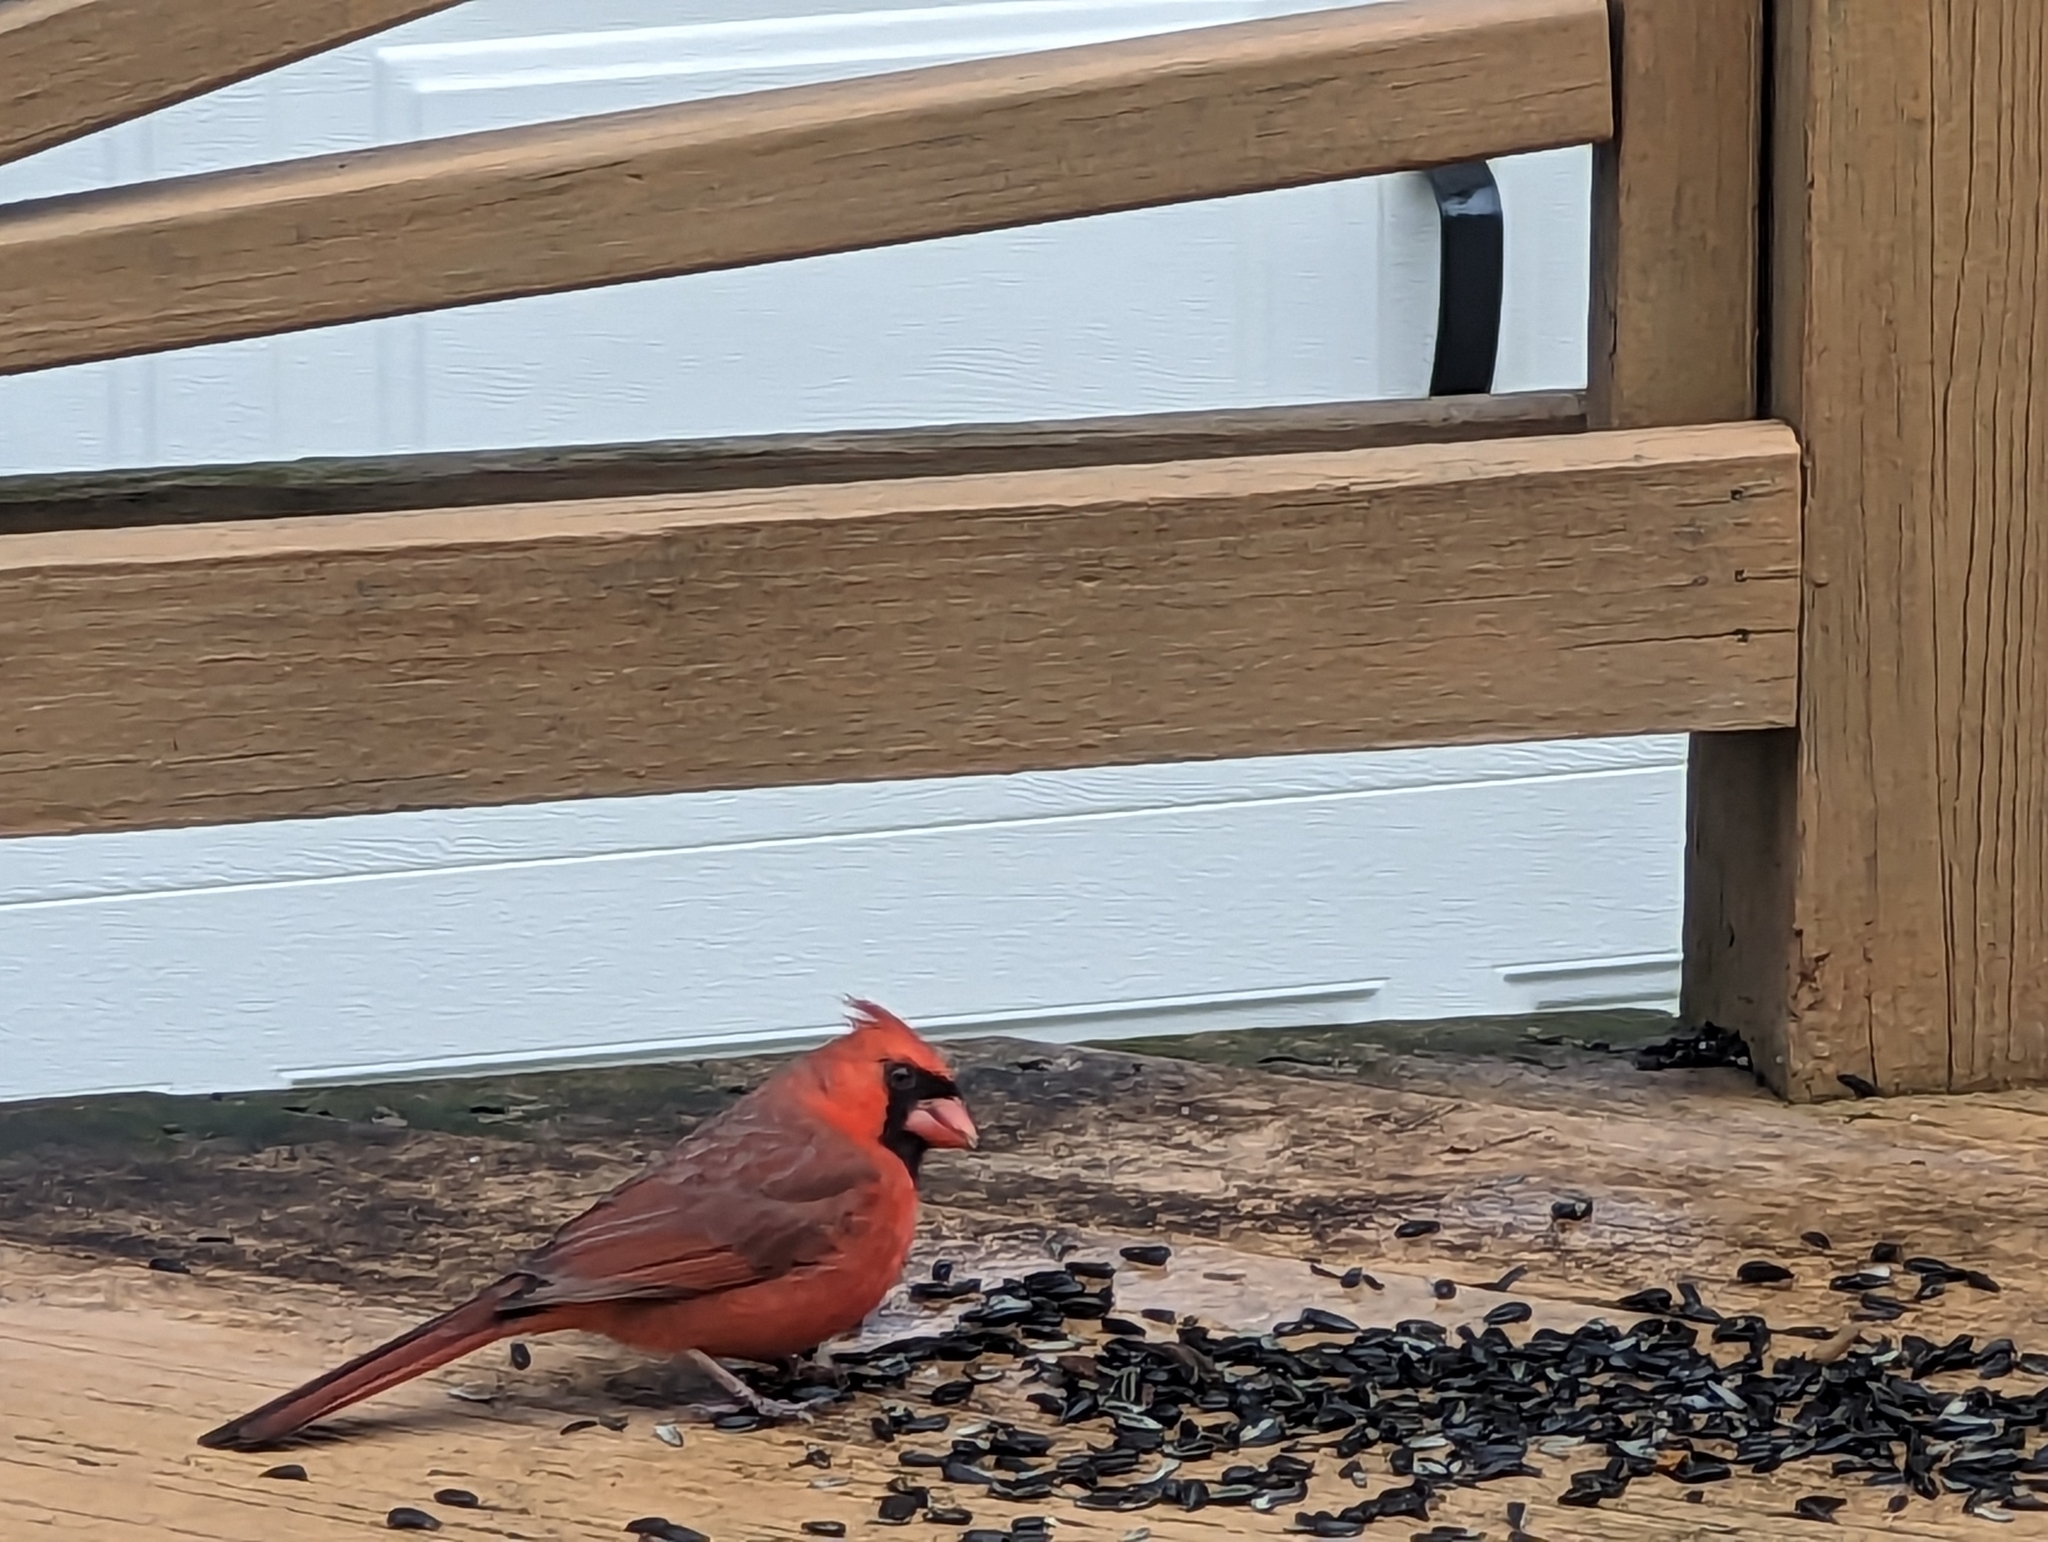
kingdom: Animalia
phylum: Chordata
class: Aves
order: Passeriformes
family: Cardinalidae
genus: Cardinalis
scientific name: Cardinalis cardinalis
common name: Northern cardinal
